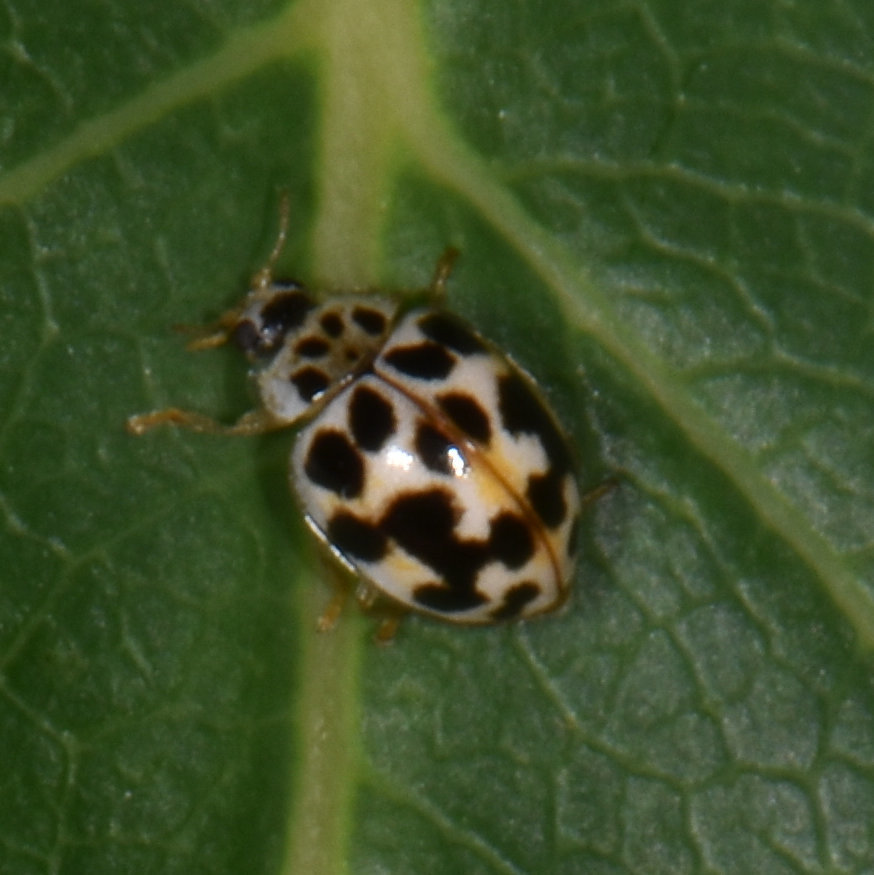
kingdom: Animalia
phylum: Arthropoda
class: Insecta
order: Coleoptera
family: Coccinellidae
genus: Psyllobora
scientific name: Psyllobora vigintimaculata
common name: Ladybird beetle
